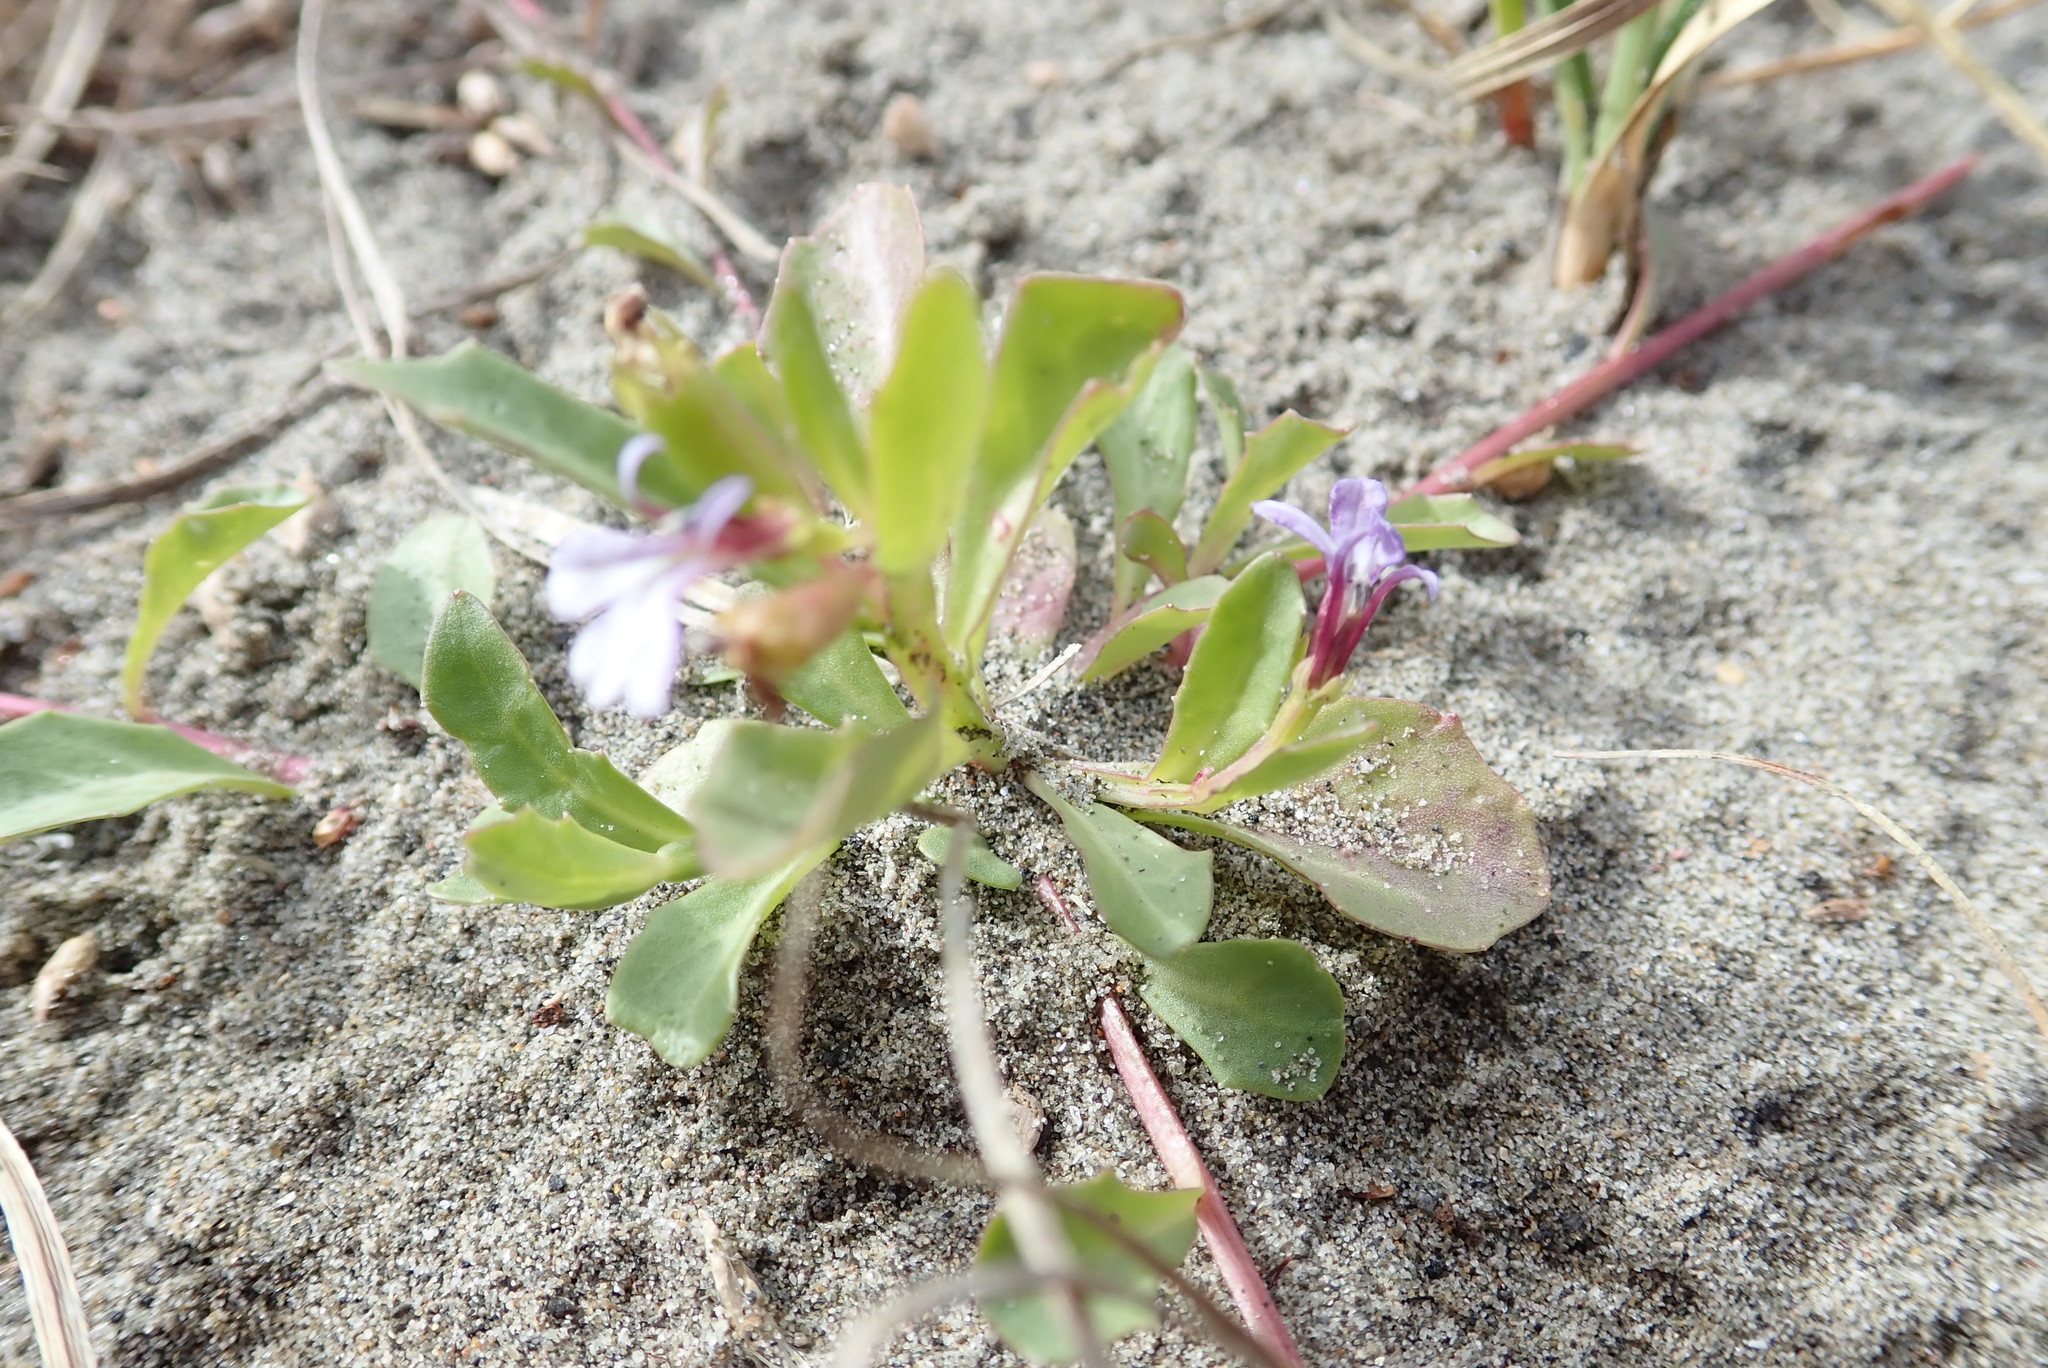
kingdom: Plantae
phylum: Tracheophyta
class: Magnoliopsida
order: Asterales
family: Campanulaceae
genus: Lobelia
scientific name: Lobelia anceps
